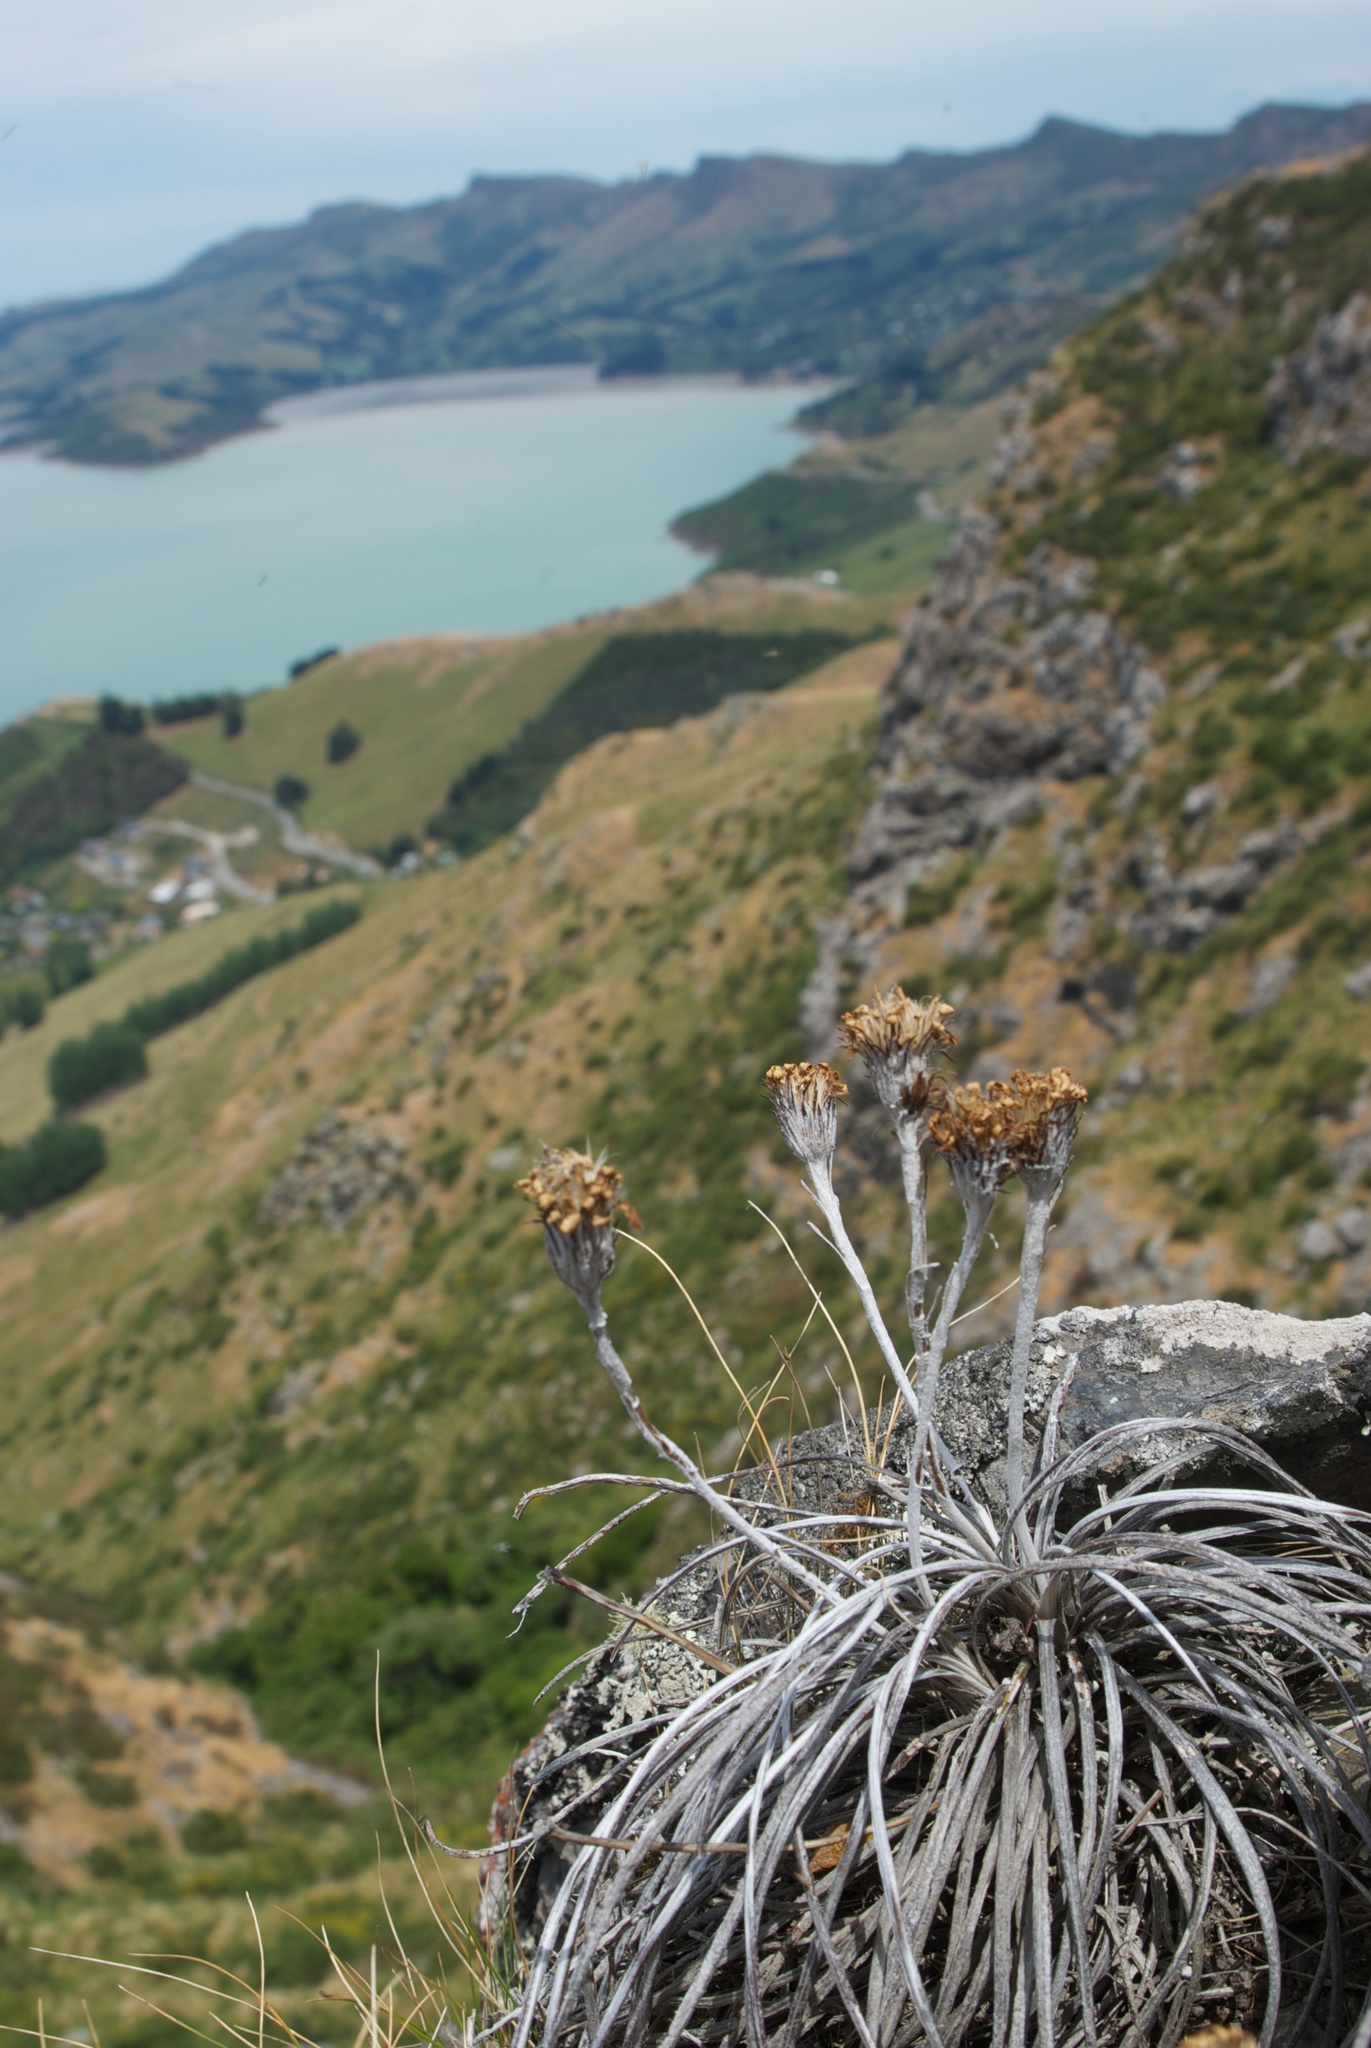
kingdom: Plantae
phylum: Tracheophyta
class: Magnoliopsida
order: Asterales
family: Asteraceae
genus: Celmisia
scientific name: Celmisia gracilenta
